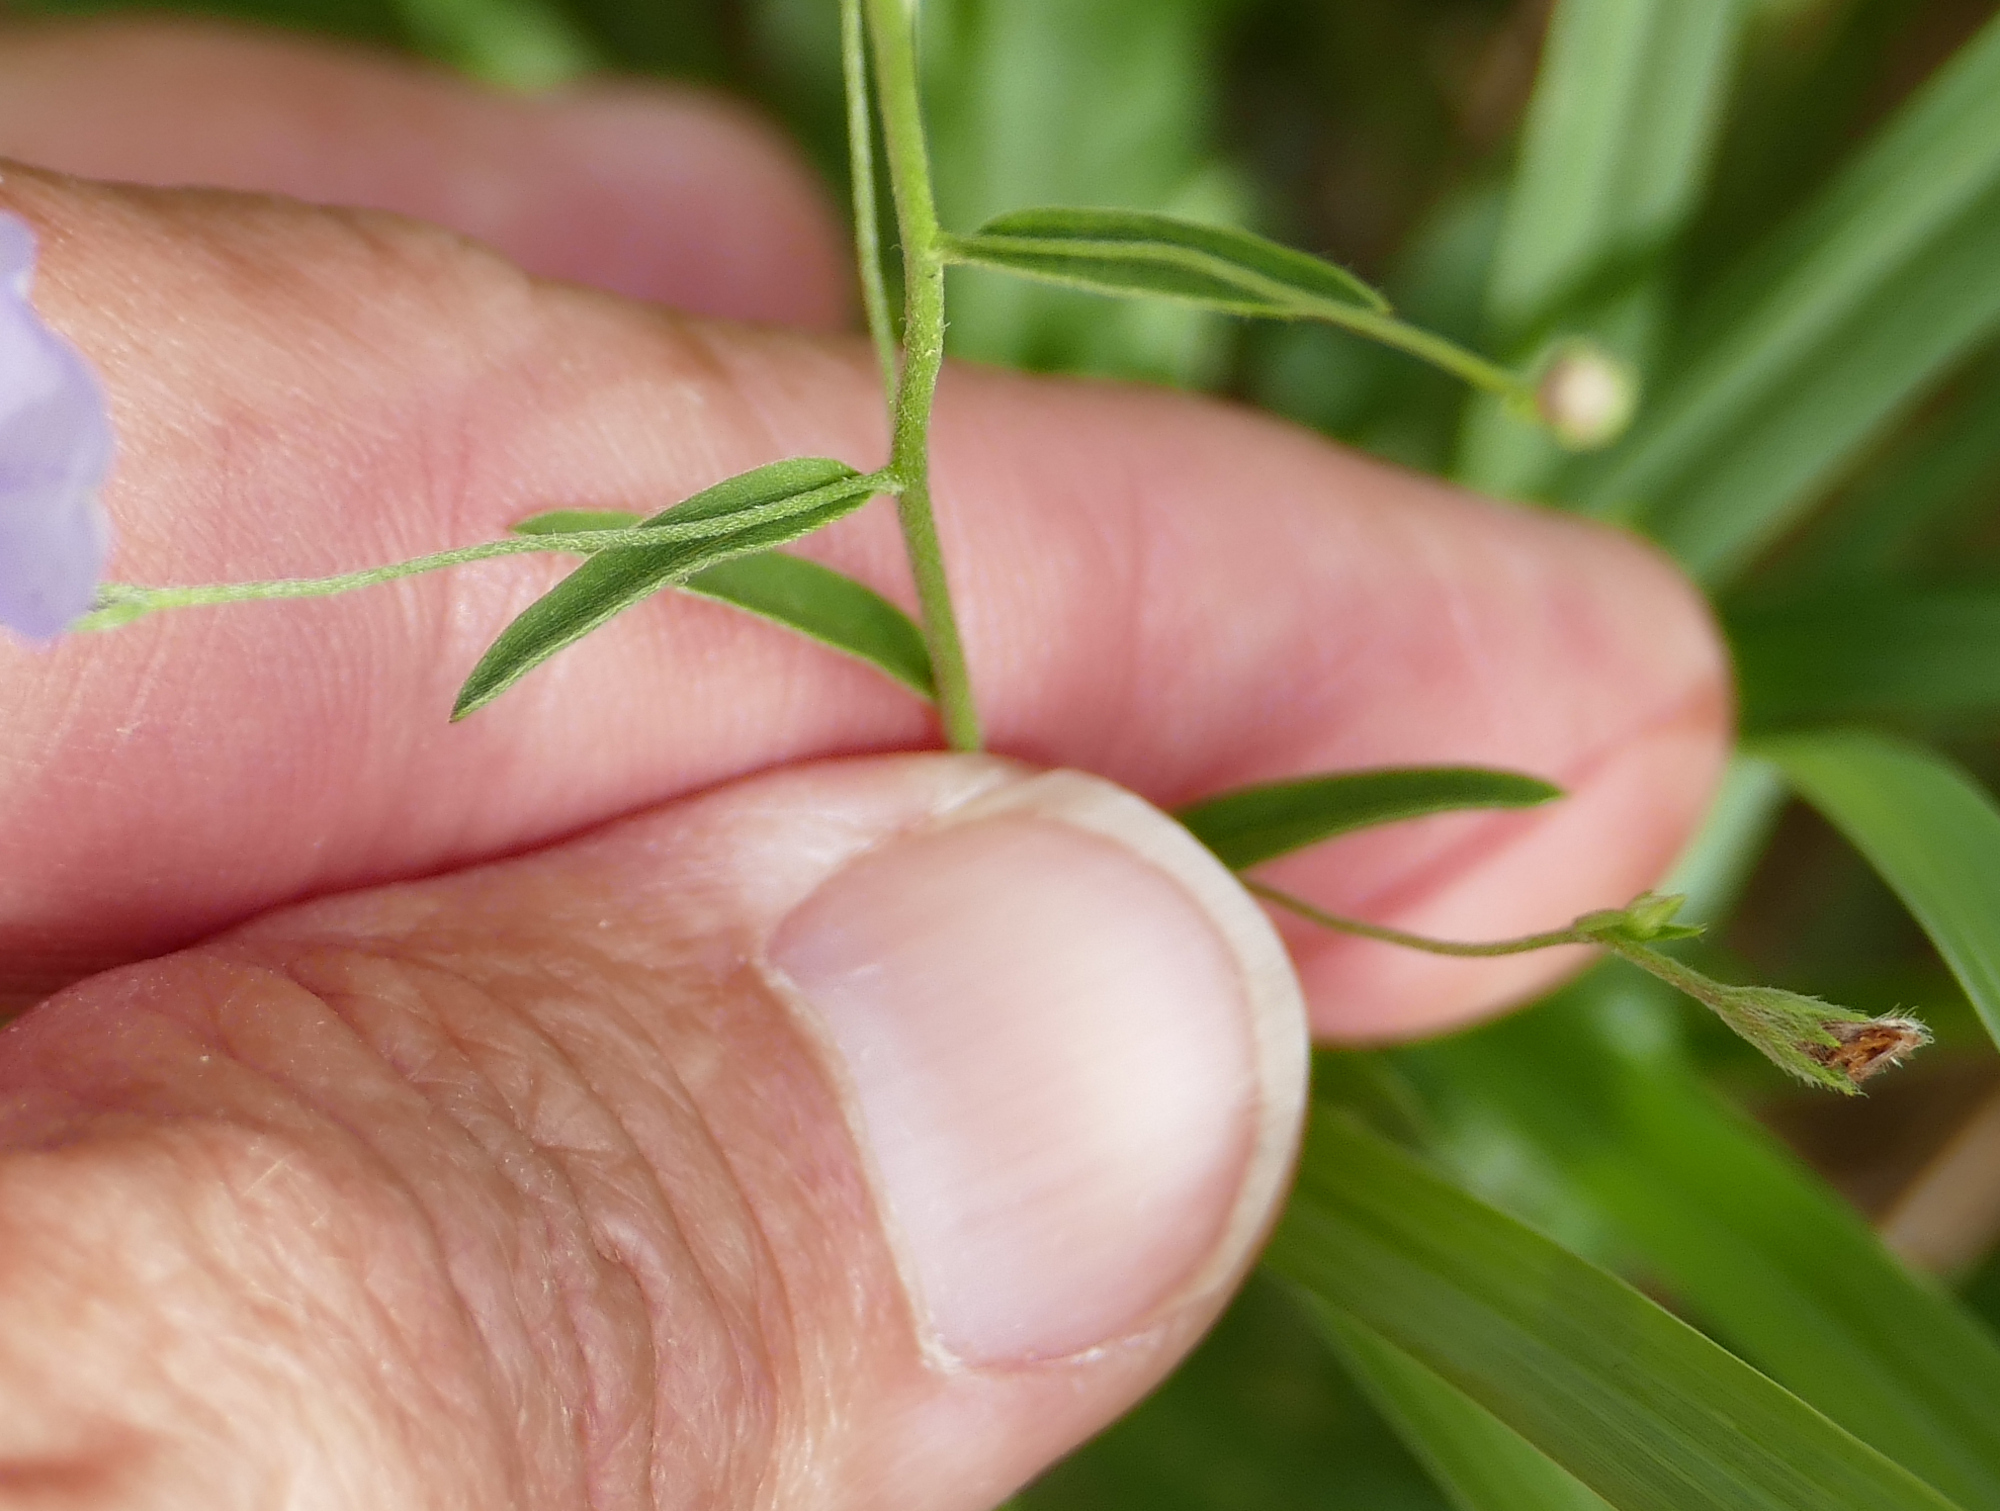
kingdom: Plantae
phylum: Tracheophyta
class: Magnoliopsida
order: Solanales
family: Convolvulaceae
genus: Evolvulus
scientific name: Evolvulus arizonicus
